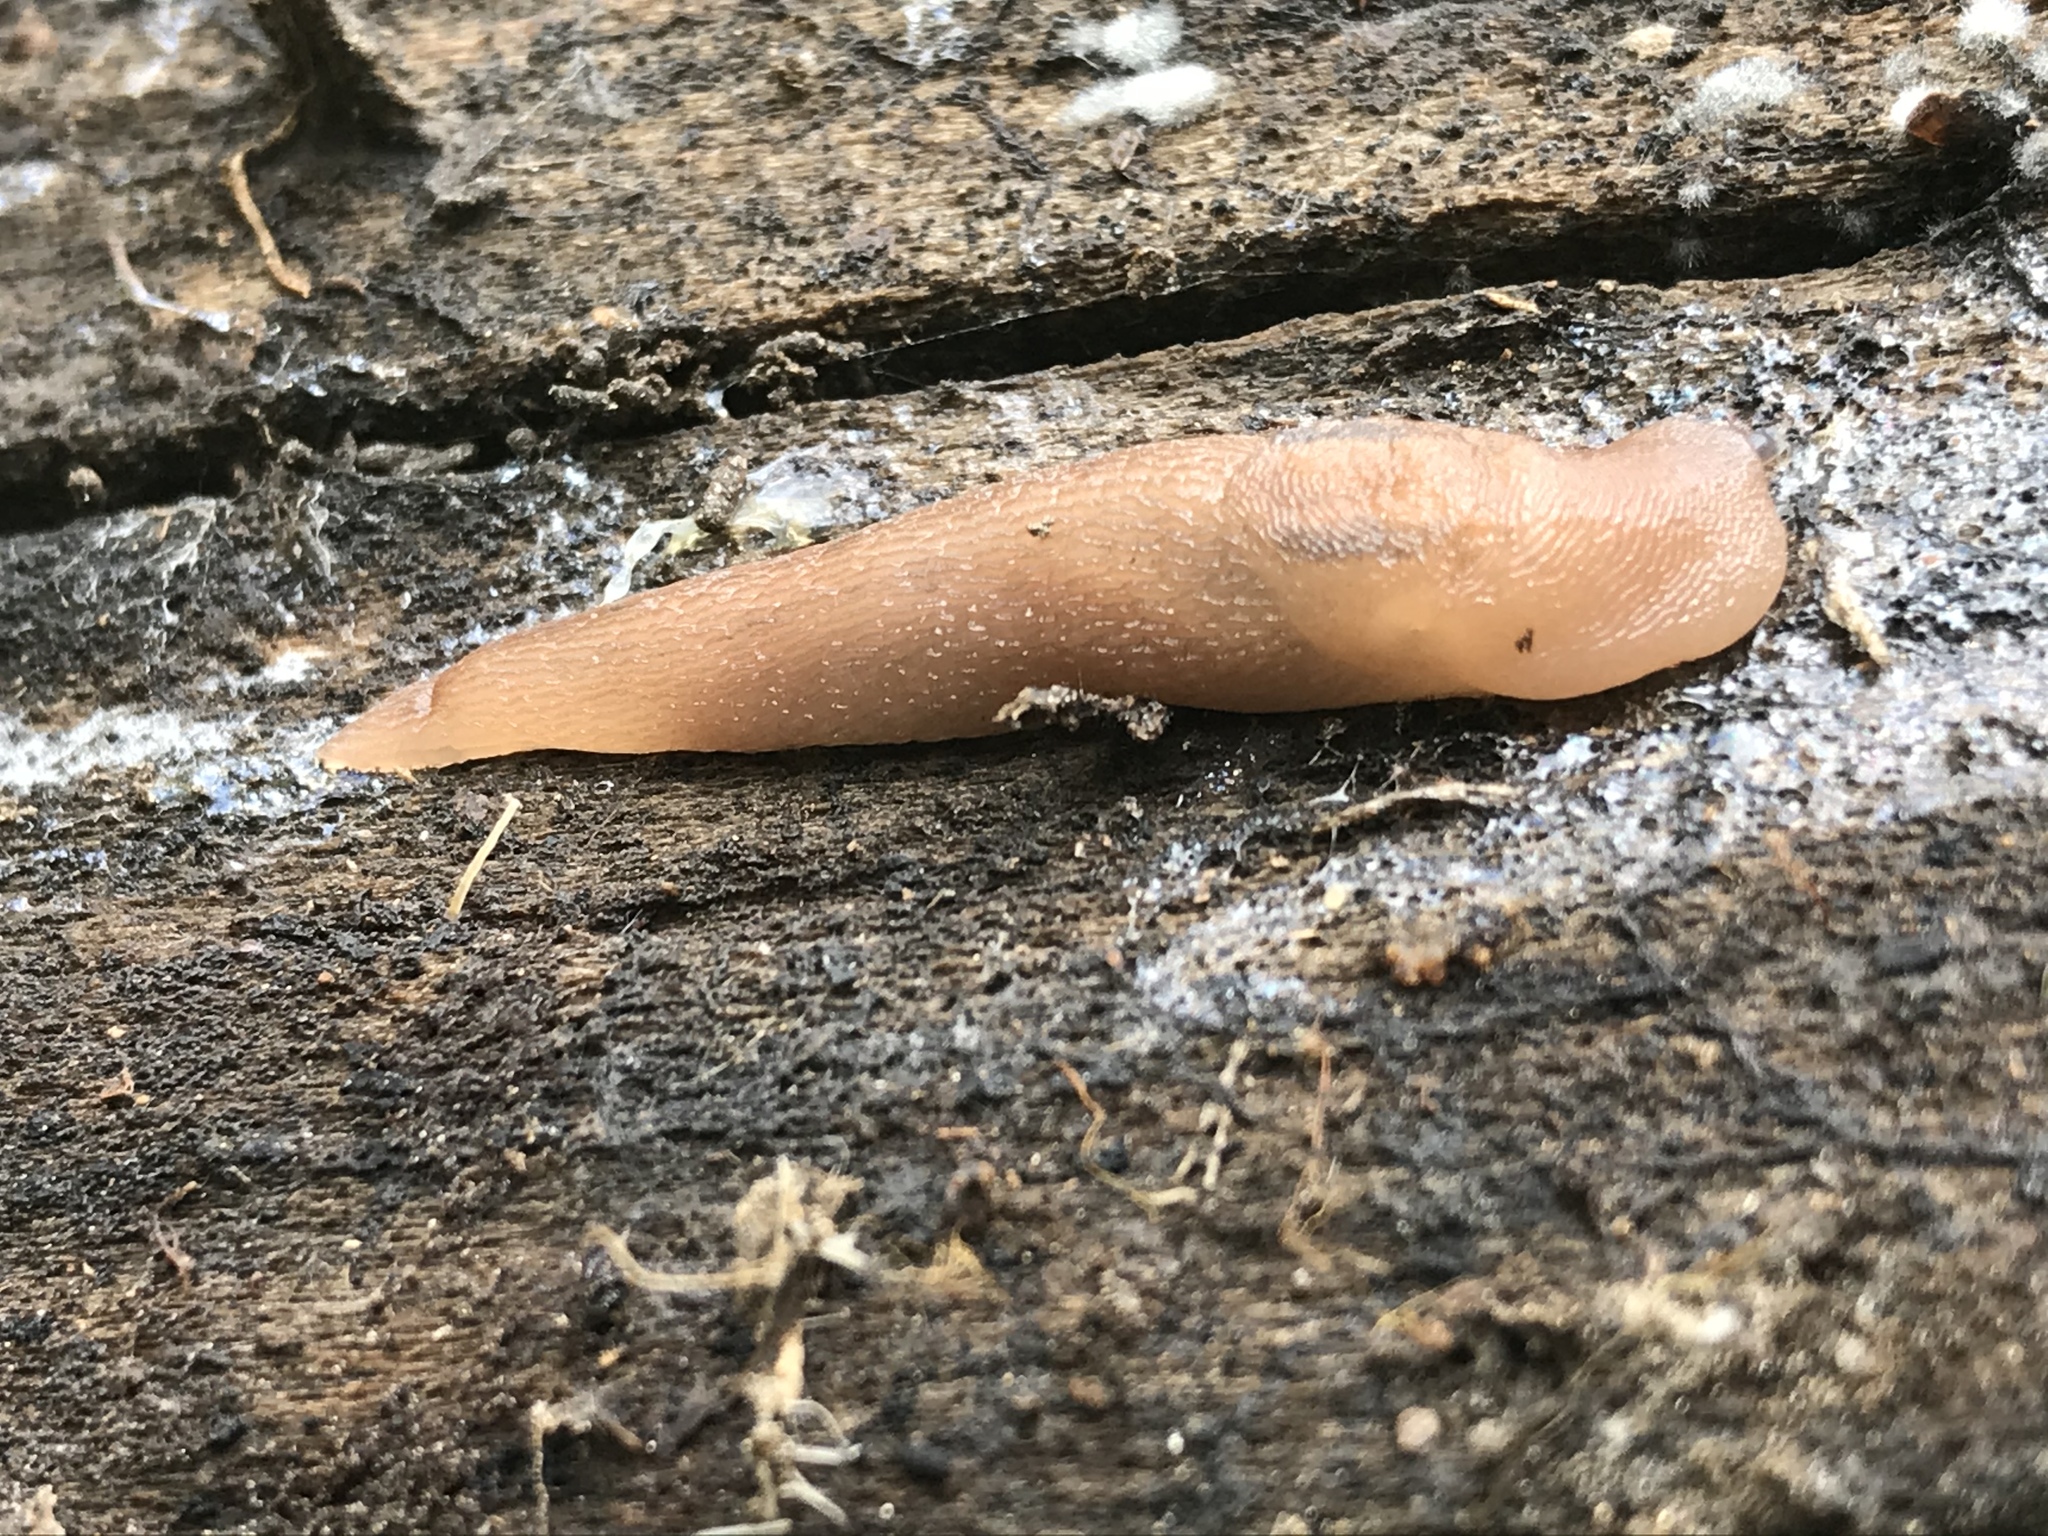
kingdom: Animalia
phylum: Mollusca
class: Gastropoda
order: Stylommatophora
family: Limacidae
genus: Ambigolimax
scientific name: Ambigolimax
